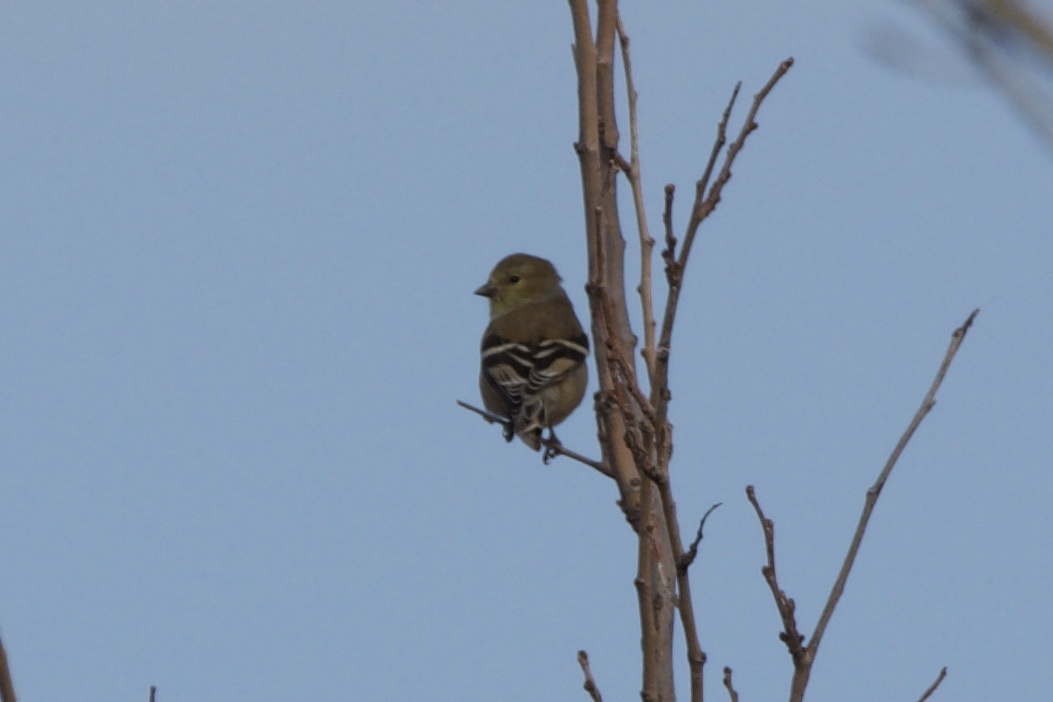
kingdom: Animalia
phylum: Chordata
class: Aves
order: Passeriformes
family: Fringillidae
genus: Spinus
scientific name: Spinus tristis
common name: American goldfinch
